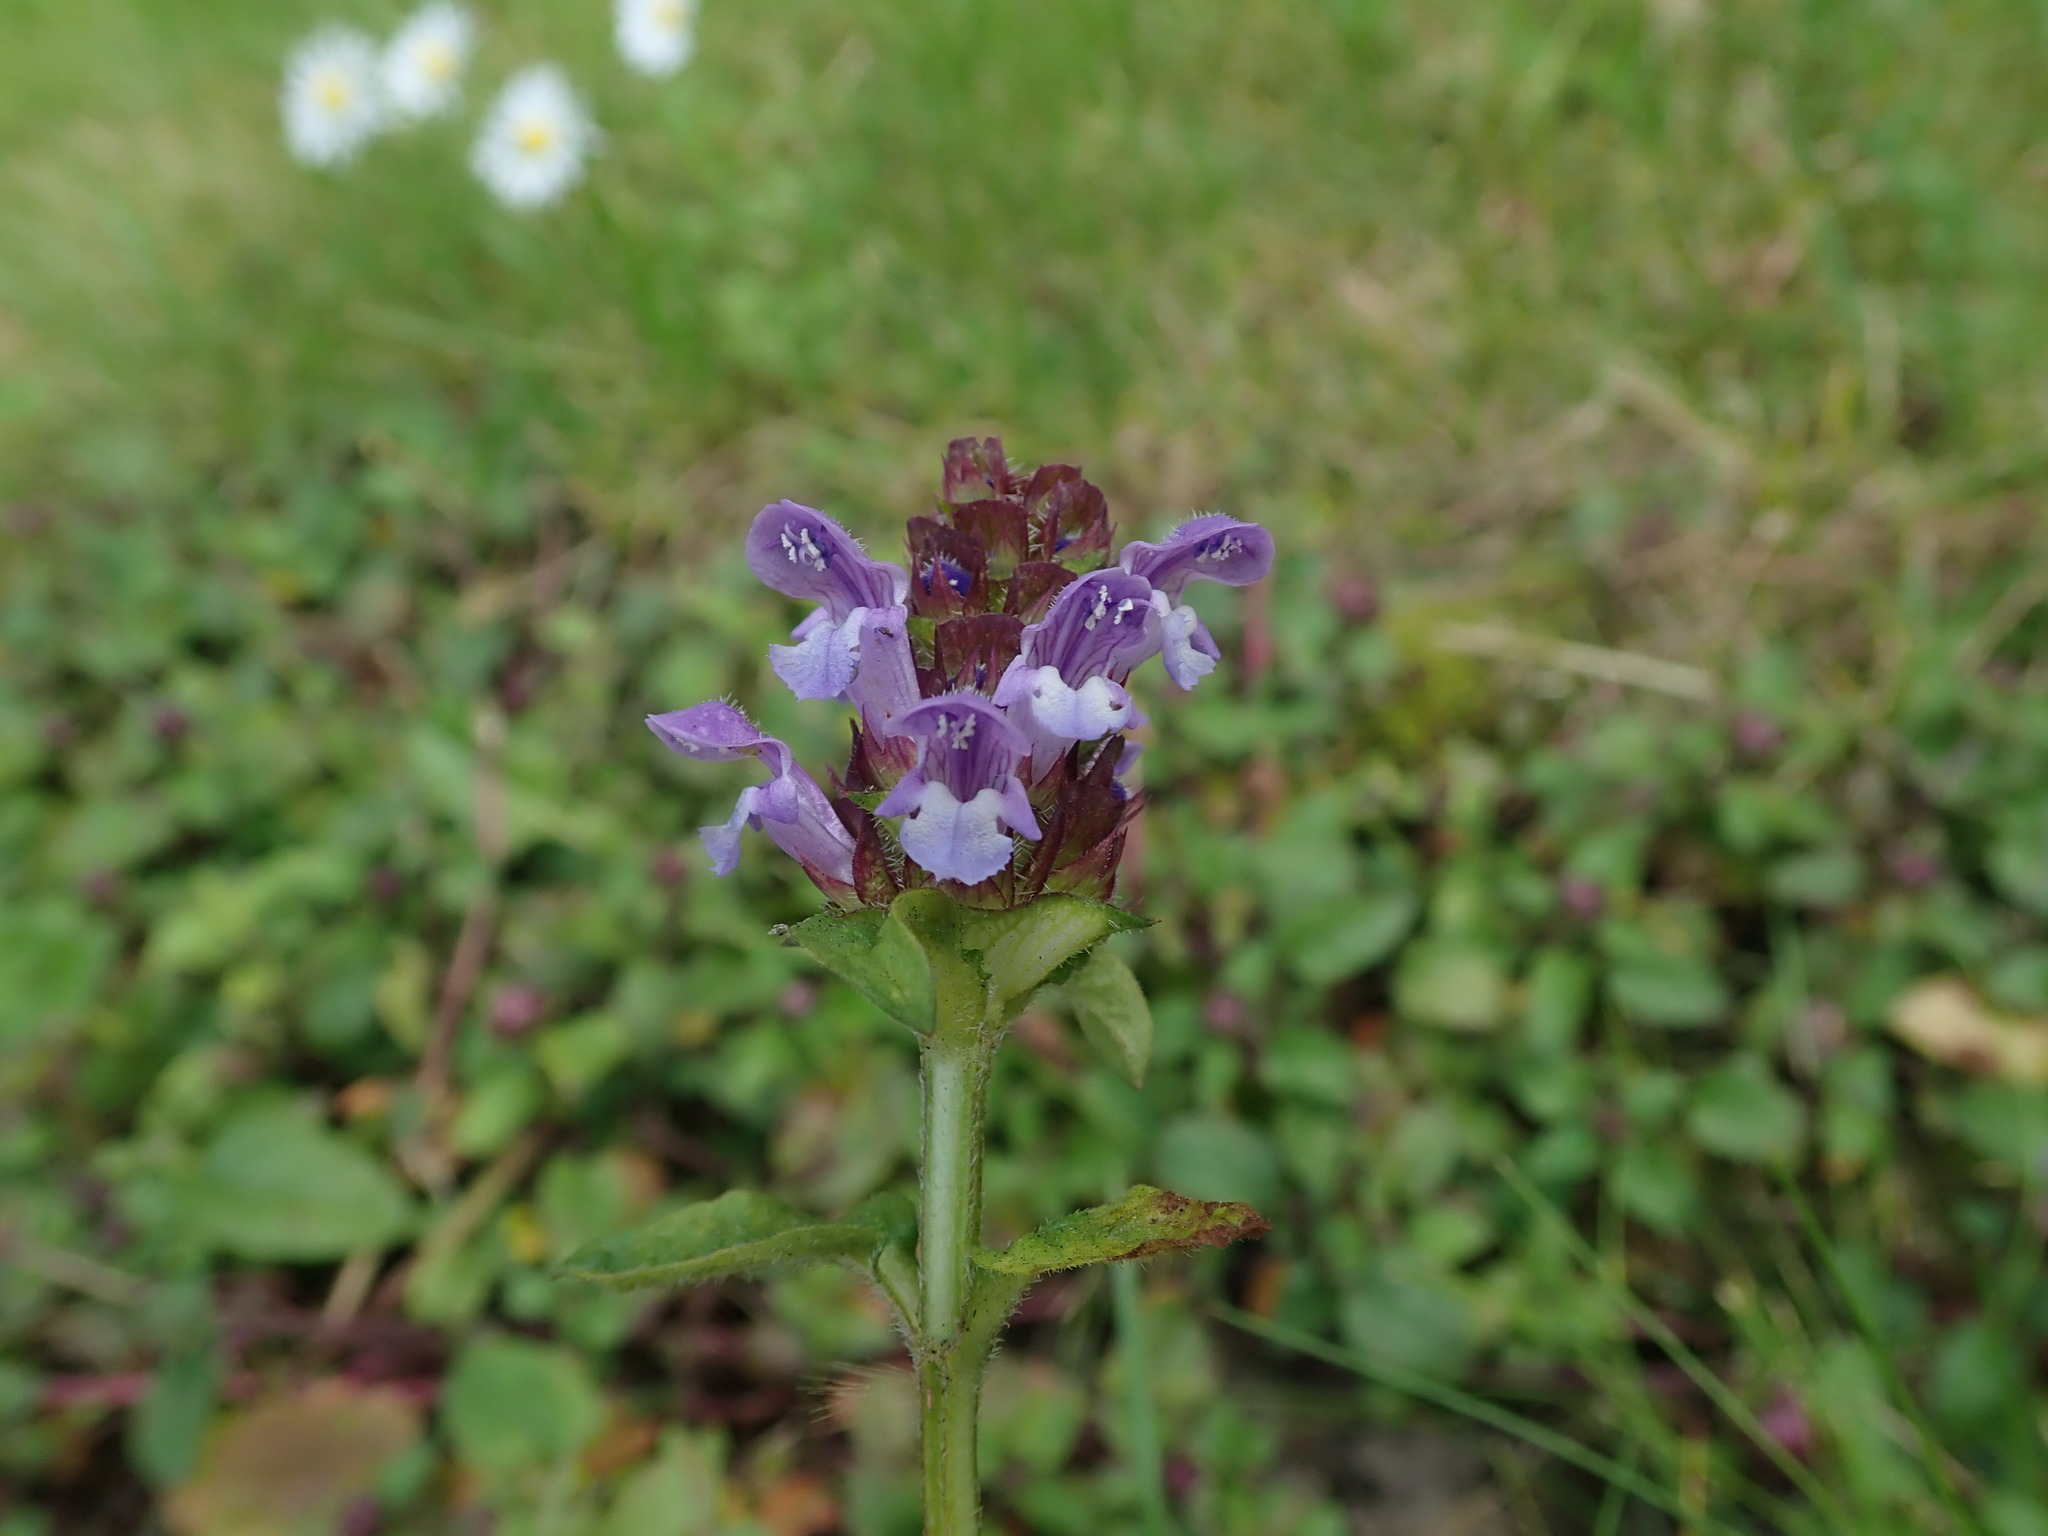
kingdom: Plantae
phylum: Tracheophyta
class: Magnoliopsida
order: Lamiales
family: Lamiaceae
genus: Prunella
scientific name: Prunella vulgaris
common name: Heal-all
